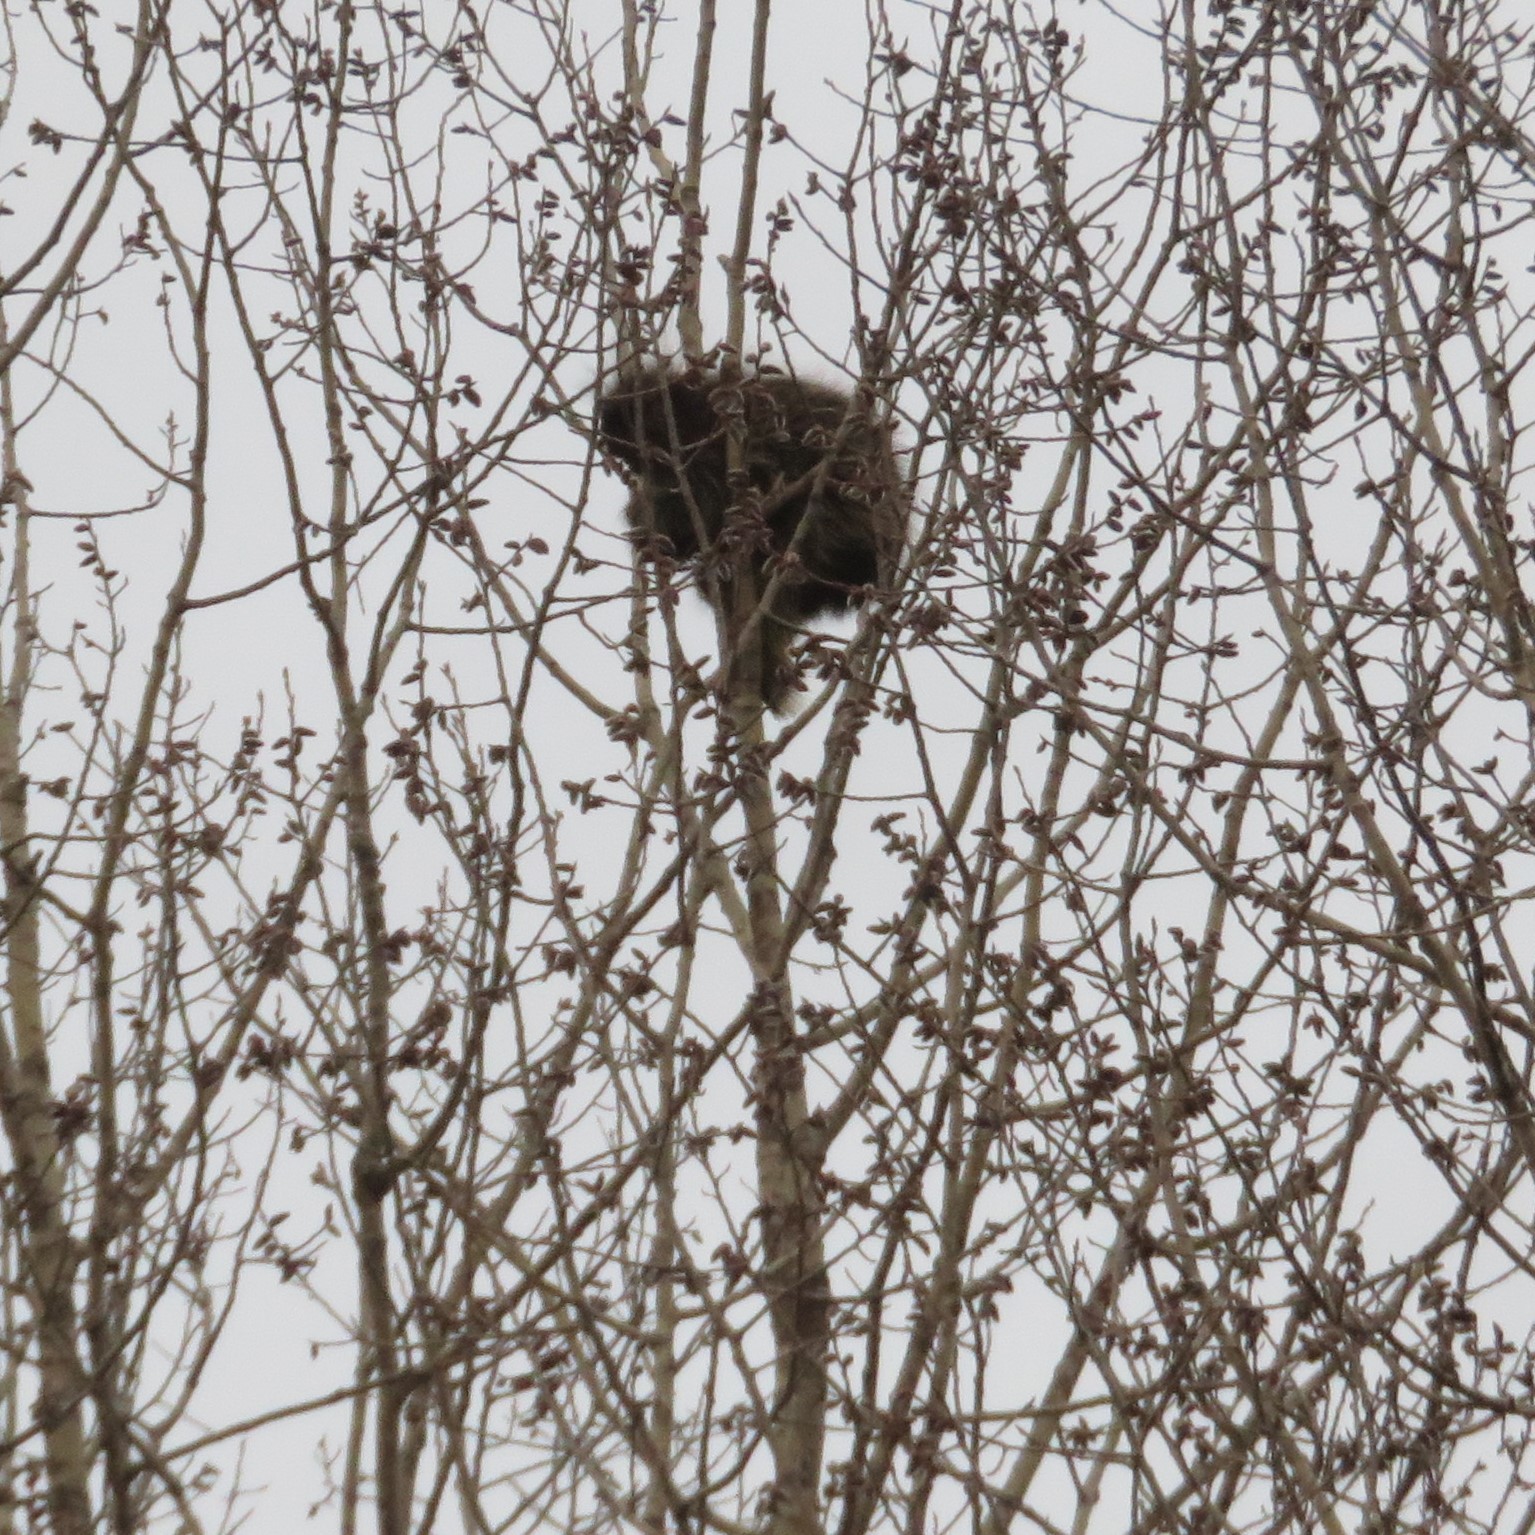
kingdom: Animalia
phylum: Chordata
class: Mammalia
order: Rodentia
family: Erethizontidae
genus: Erethizon
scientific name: Erethizon dorsatus
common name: North american porcupine
